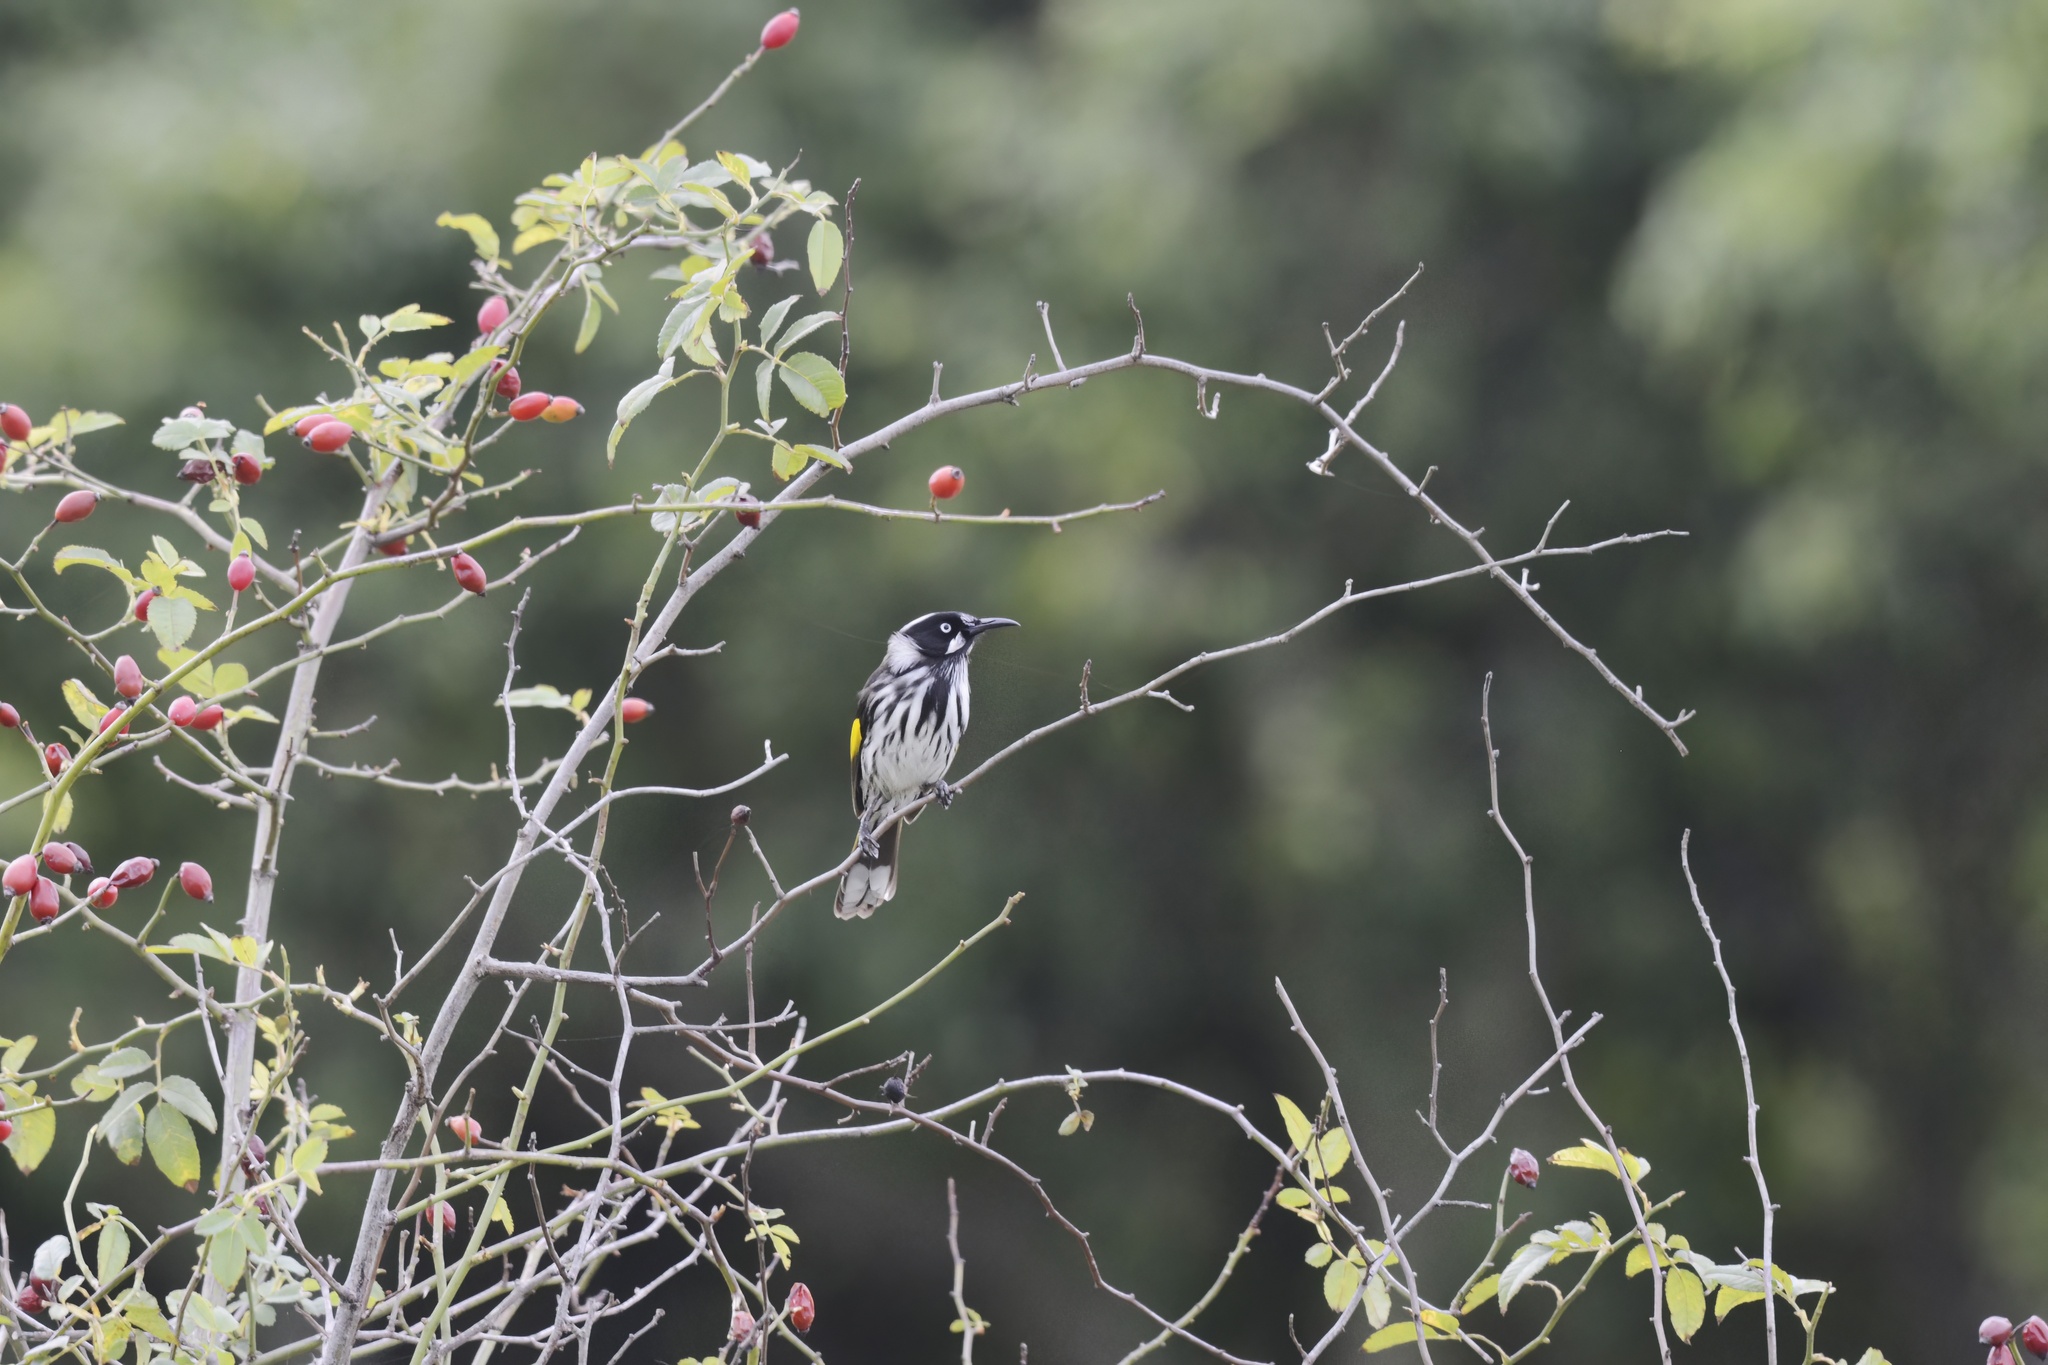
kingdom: Animalia
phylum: Chordata
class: Aves
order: Passeriformes
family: Meliphagidae
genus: Phylidonyris
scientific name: Phylidonyris novaehollandiae
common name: New holland honeyeater
